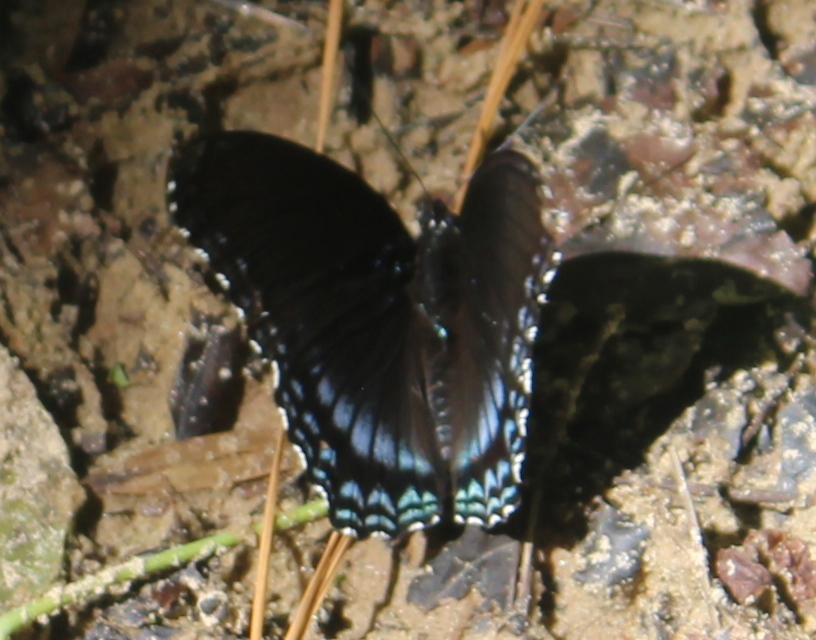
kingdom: Animalia
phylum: Arthropoda
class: Insecta
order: Lepidoptera
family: Nymphalidae
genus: Limenitis
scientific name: Limenitis astyanax
